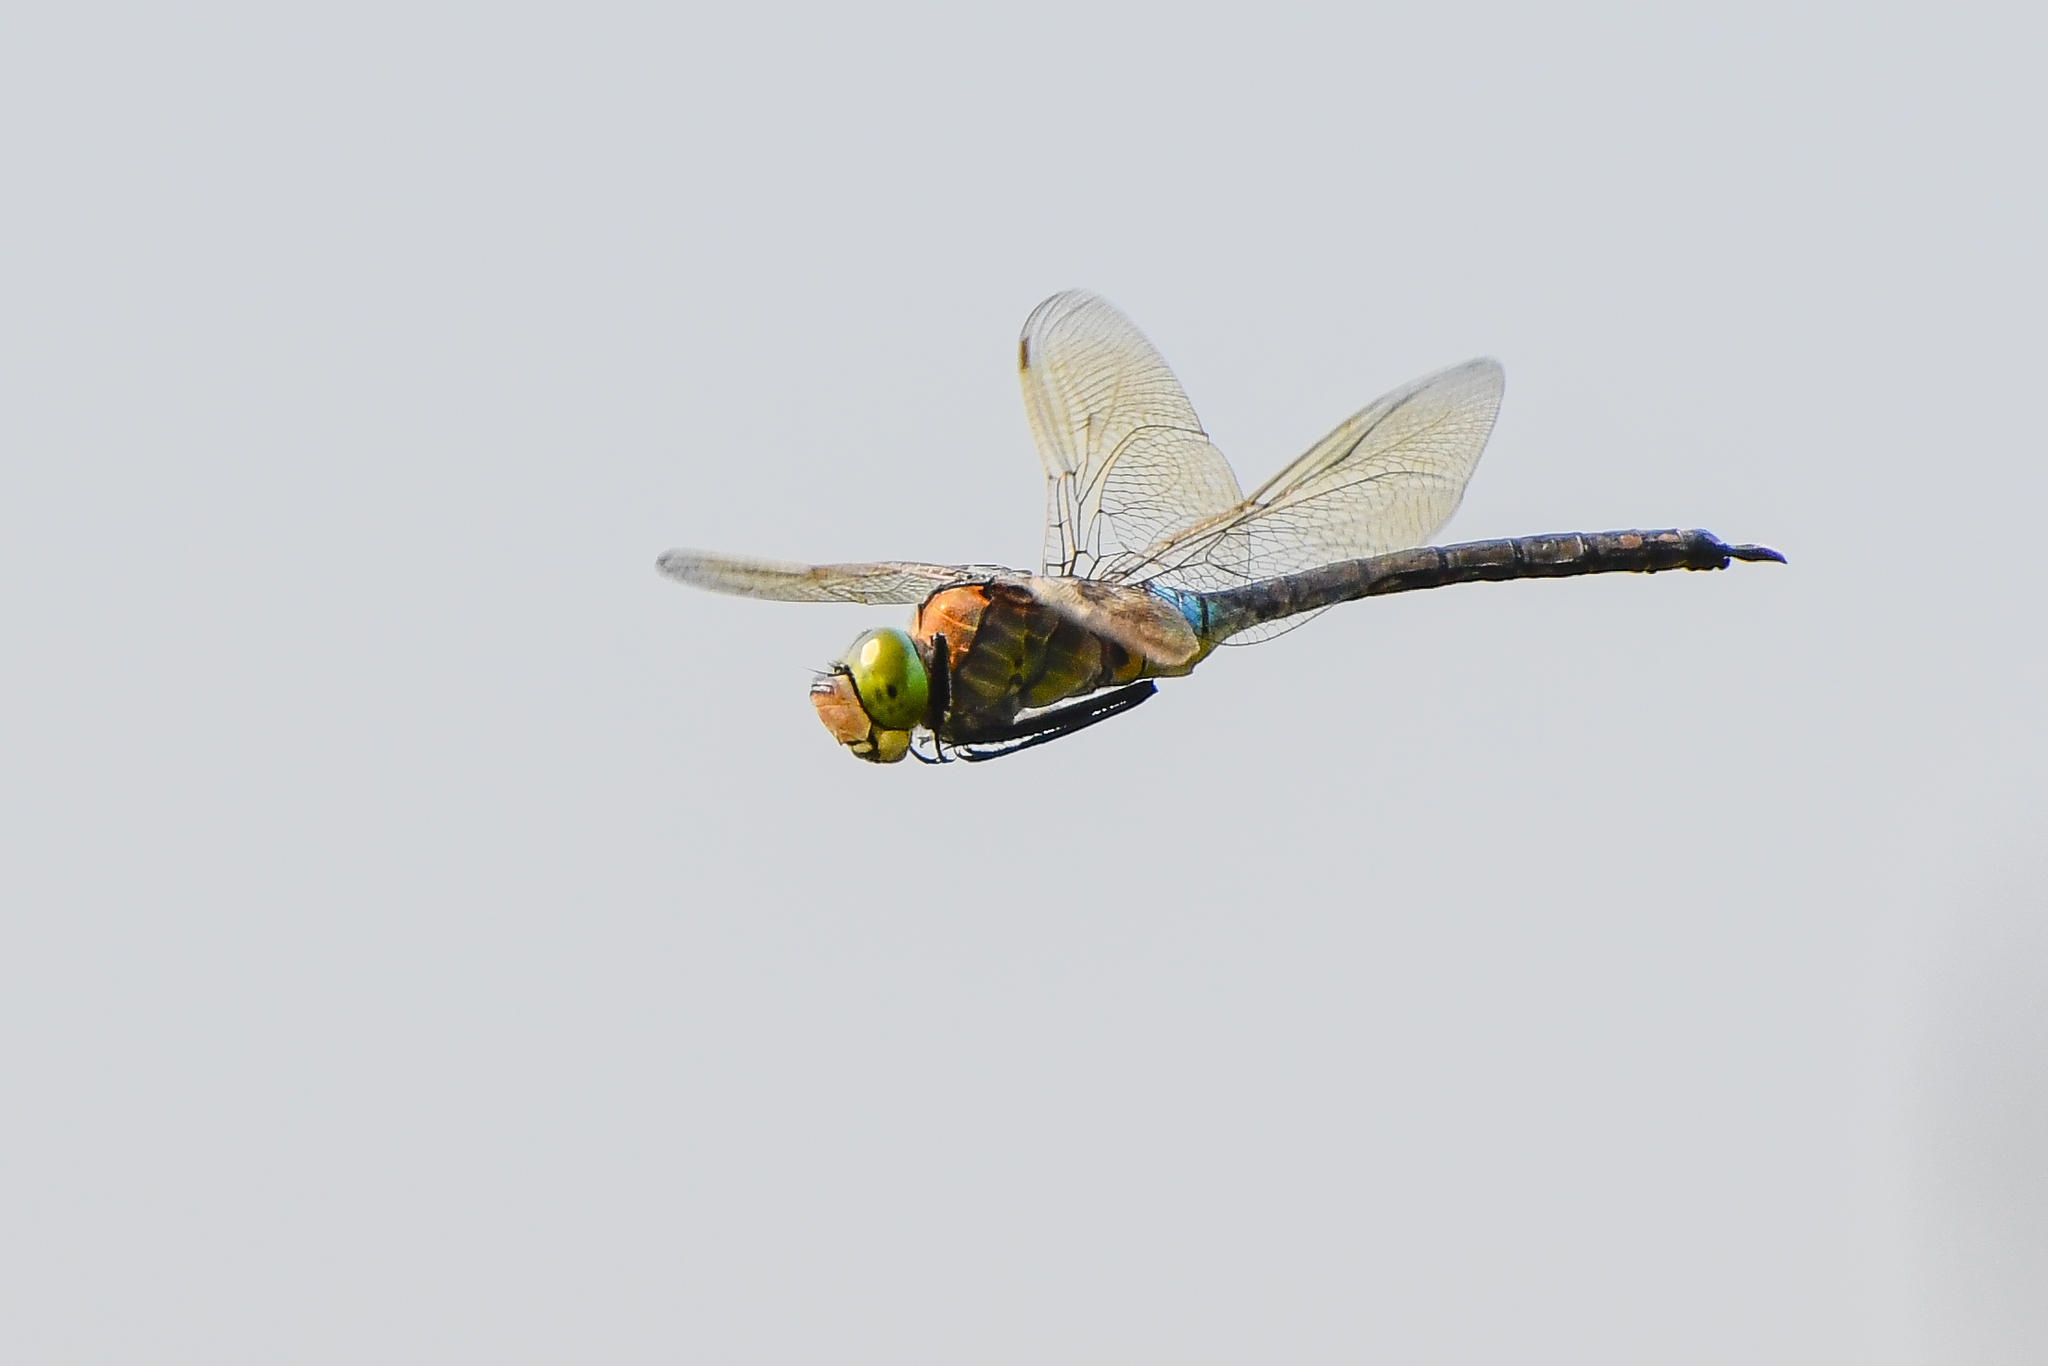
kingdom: Animalia
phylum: Arthropoda
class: Insecta
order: Odonata
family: Aeshnidae
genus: Anax
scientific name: Anax parthenope
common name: Lesser emperor
